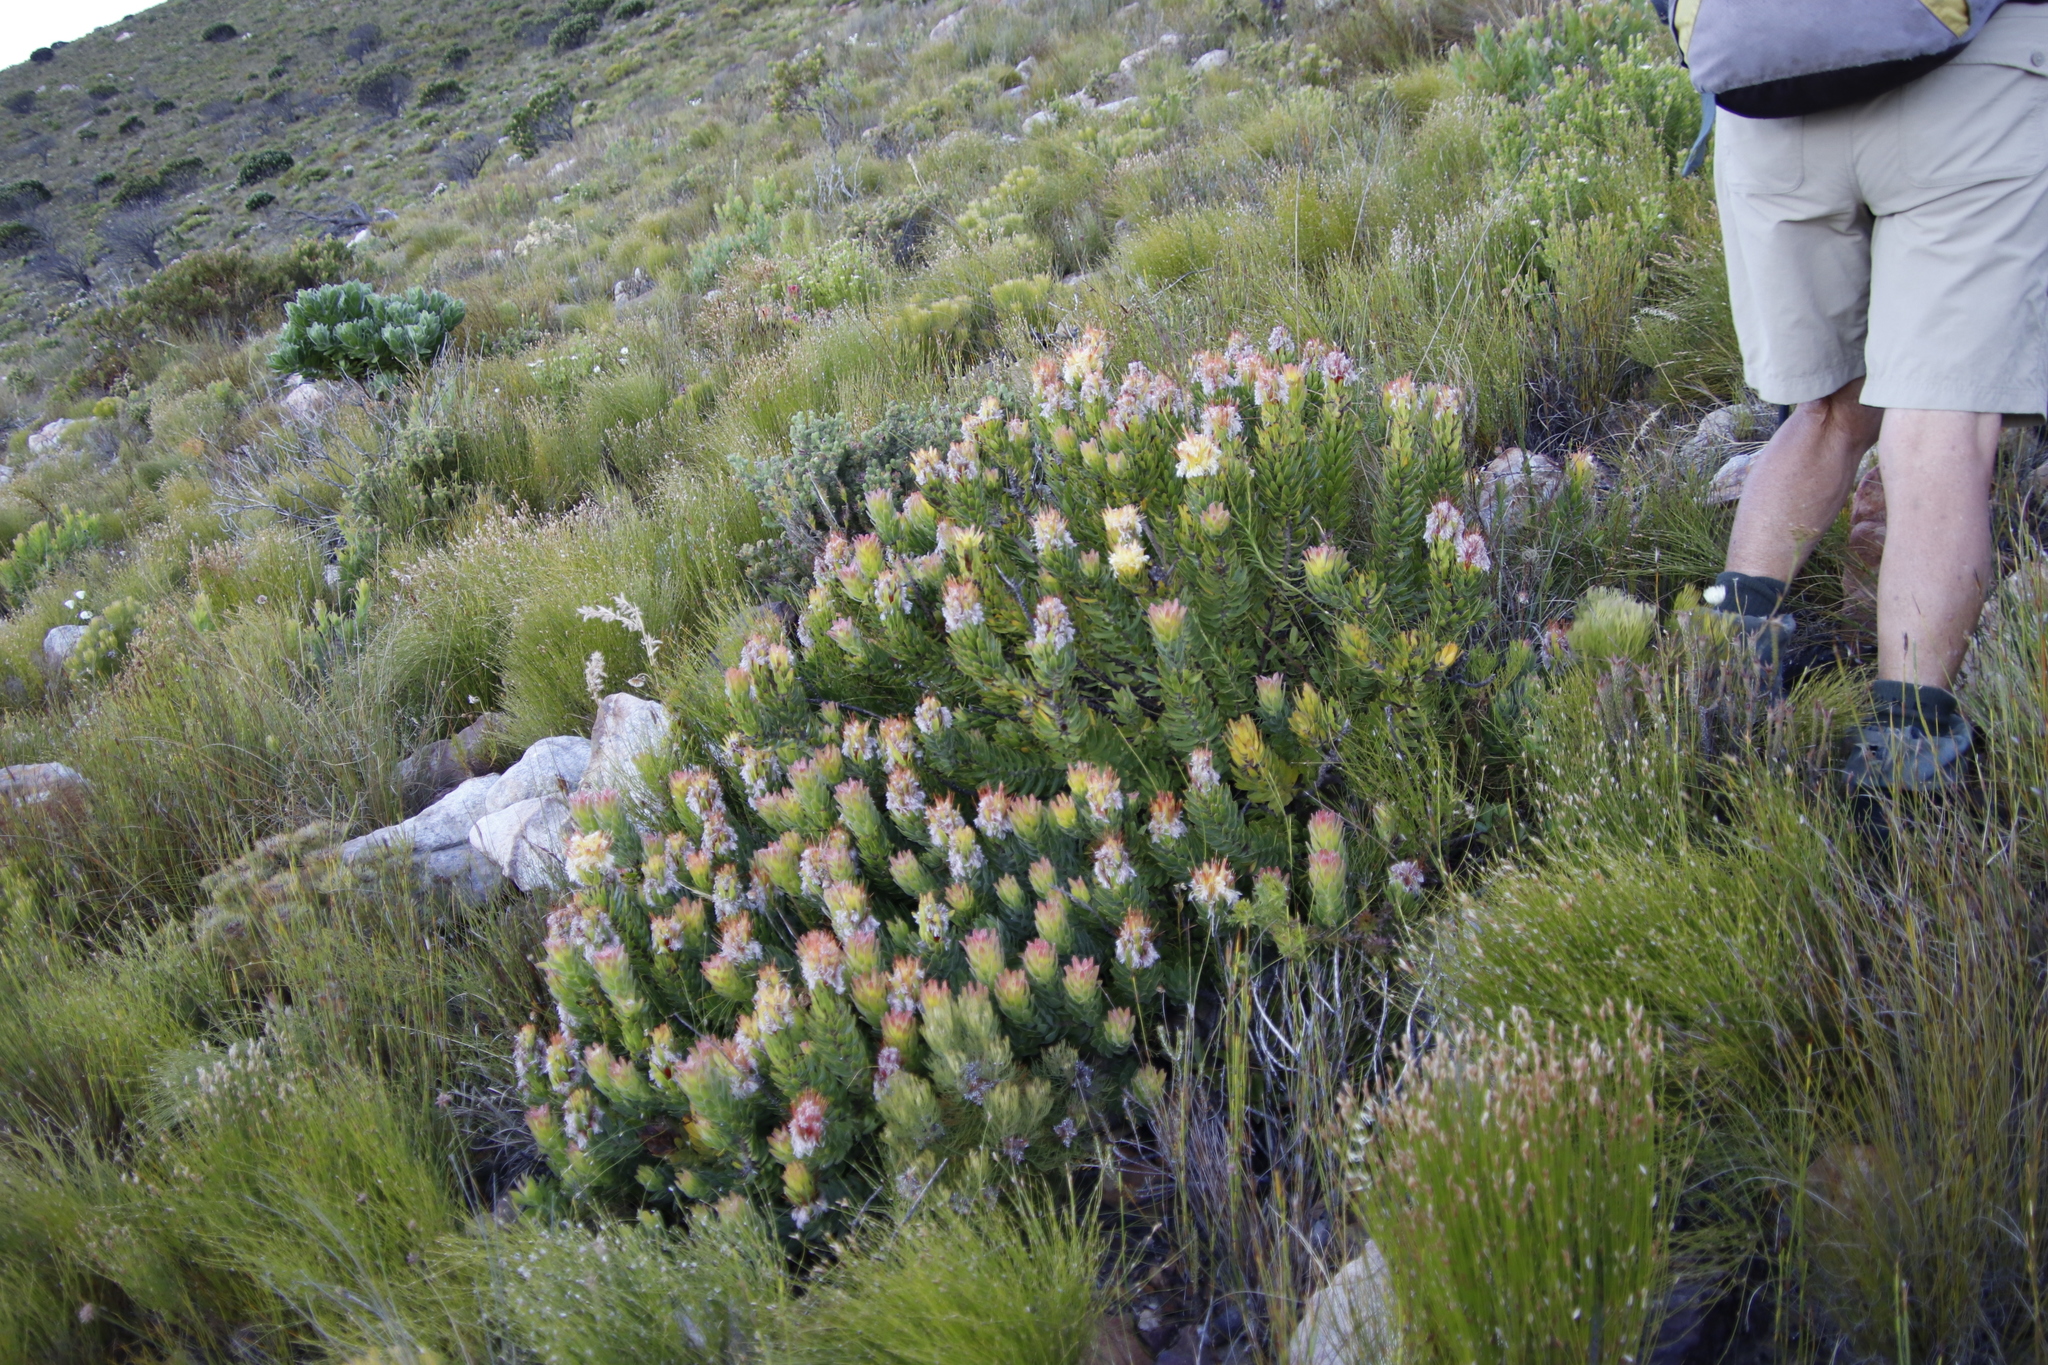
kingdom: Plantae
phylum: Tracheophyta
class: Magnoliopsida
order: Proteales
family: Proteaceae
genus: Mimetes
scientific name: Mimetes cucullatus
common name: Common pagoda
